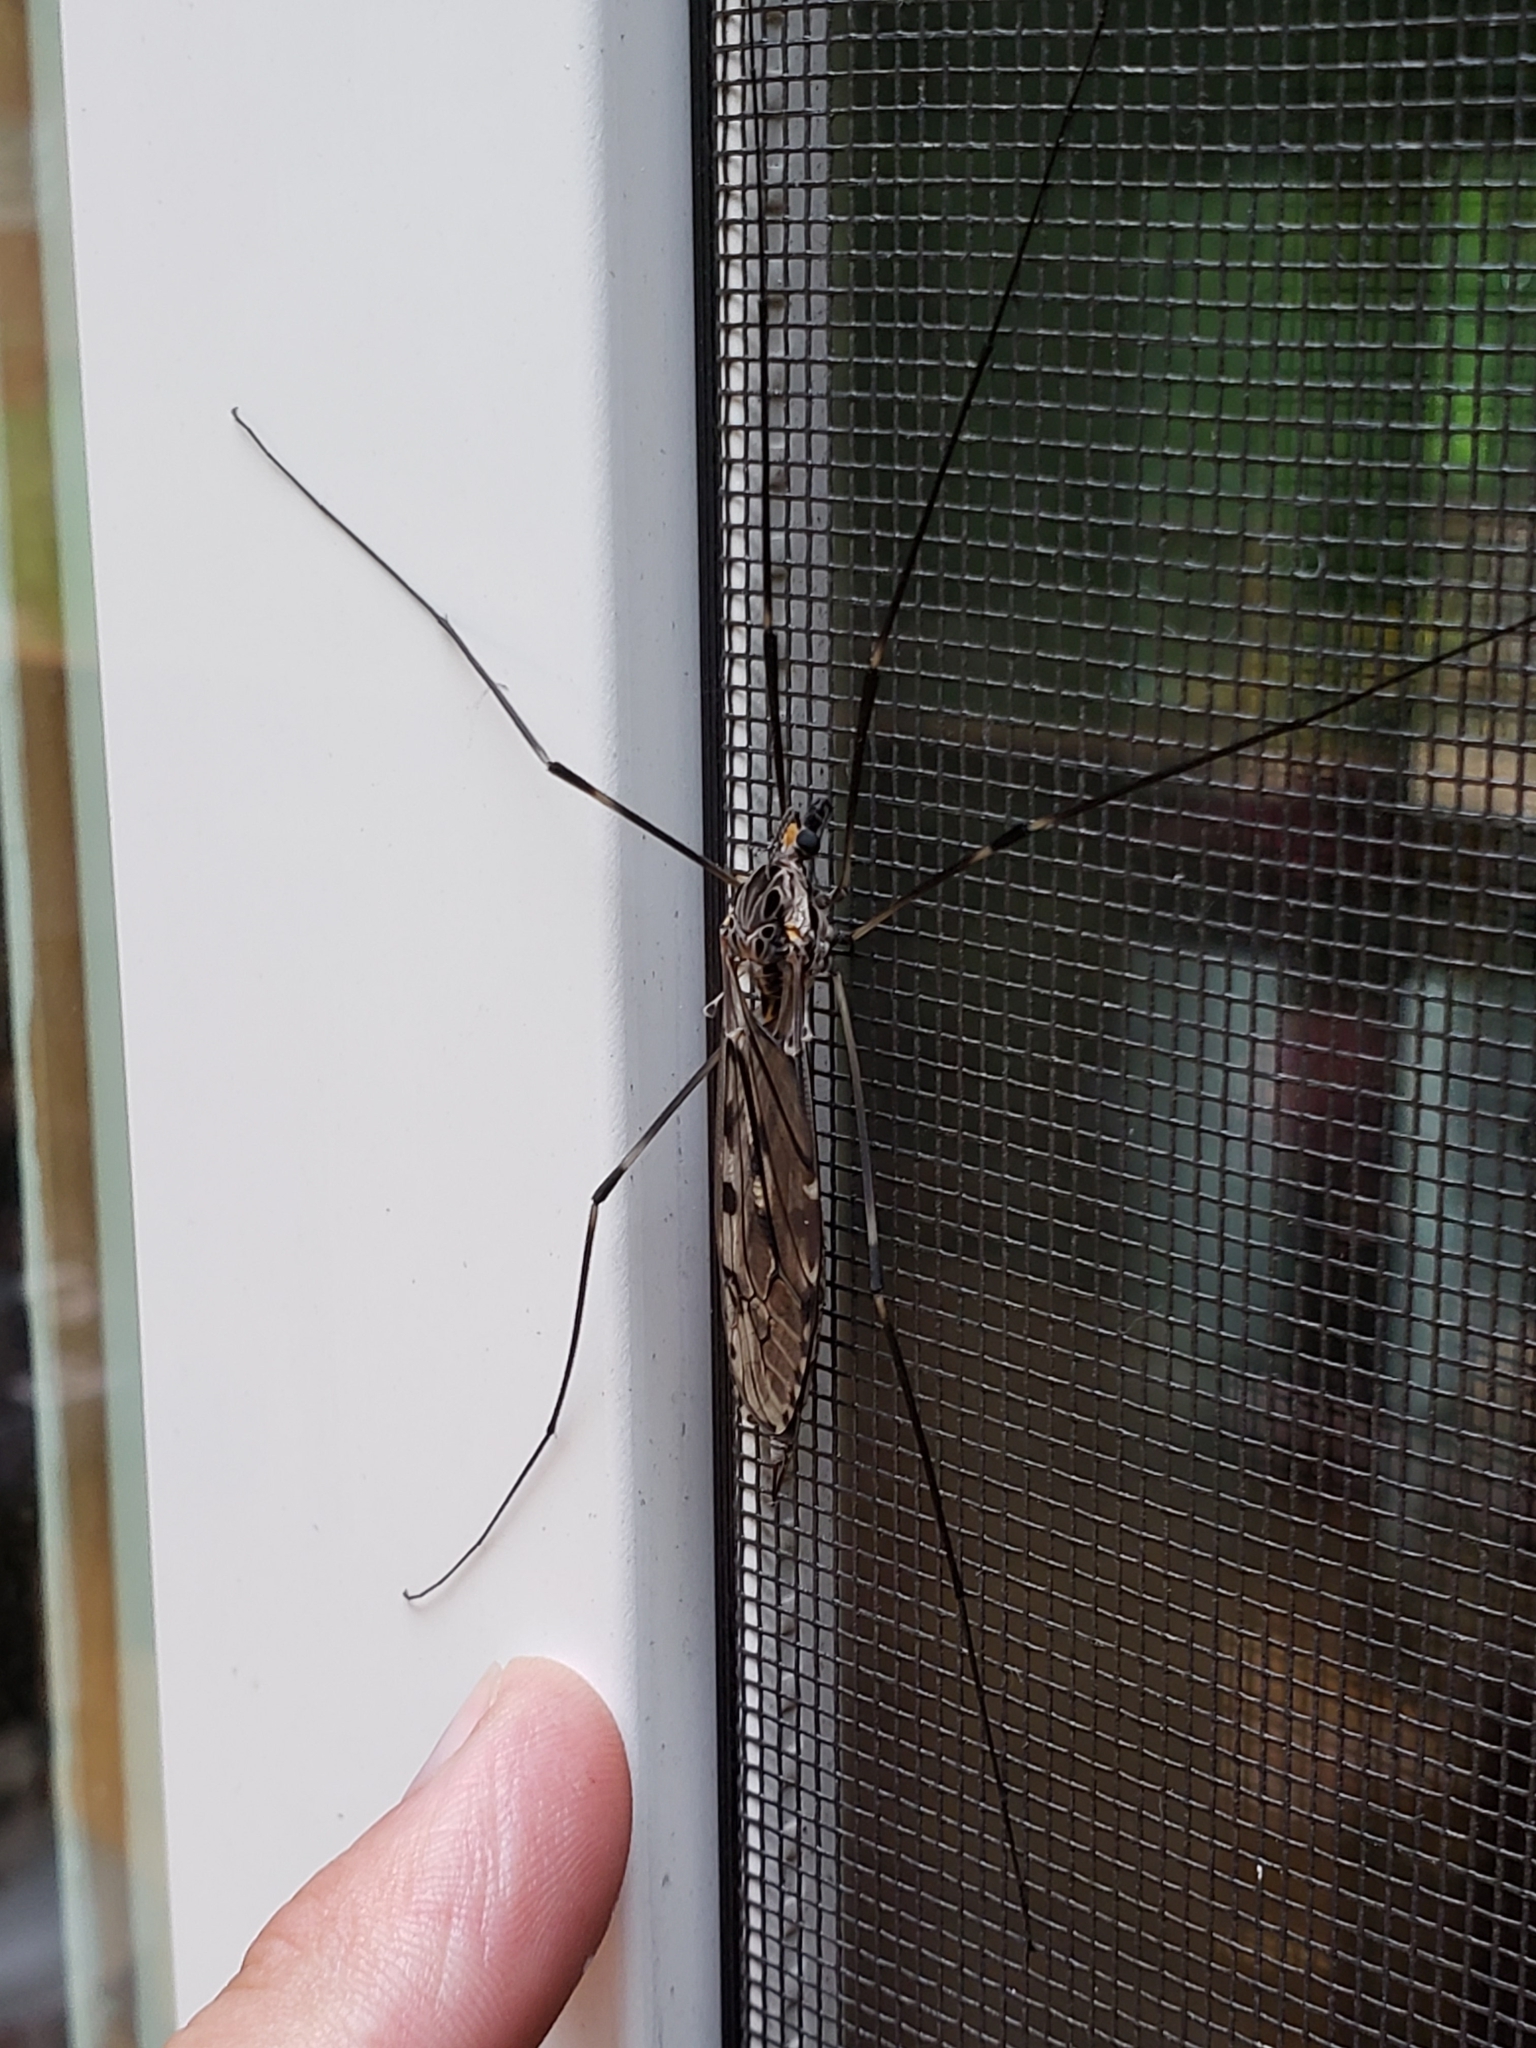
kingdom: Animalia
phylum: Arthropoda
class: Insecta
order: Diptera
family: Tipulidae
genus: Tipula
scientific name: Tipula abdominalis
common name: Giant crane fly
